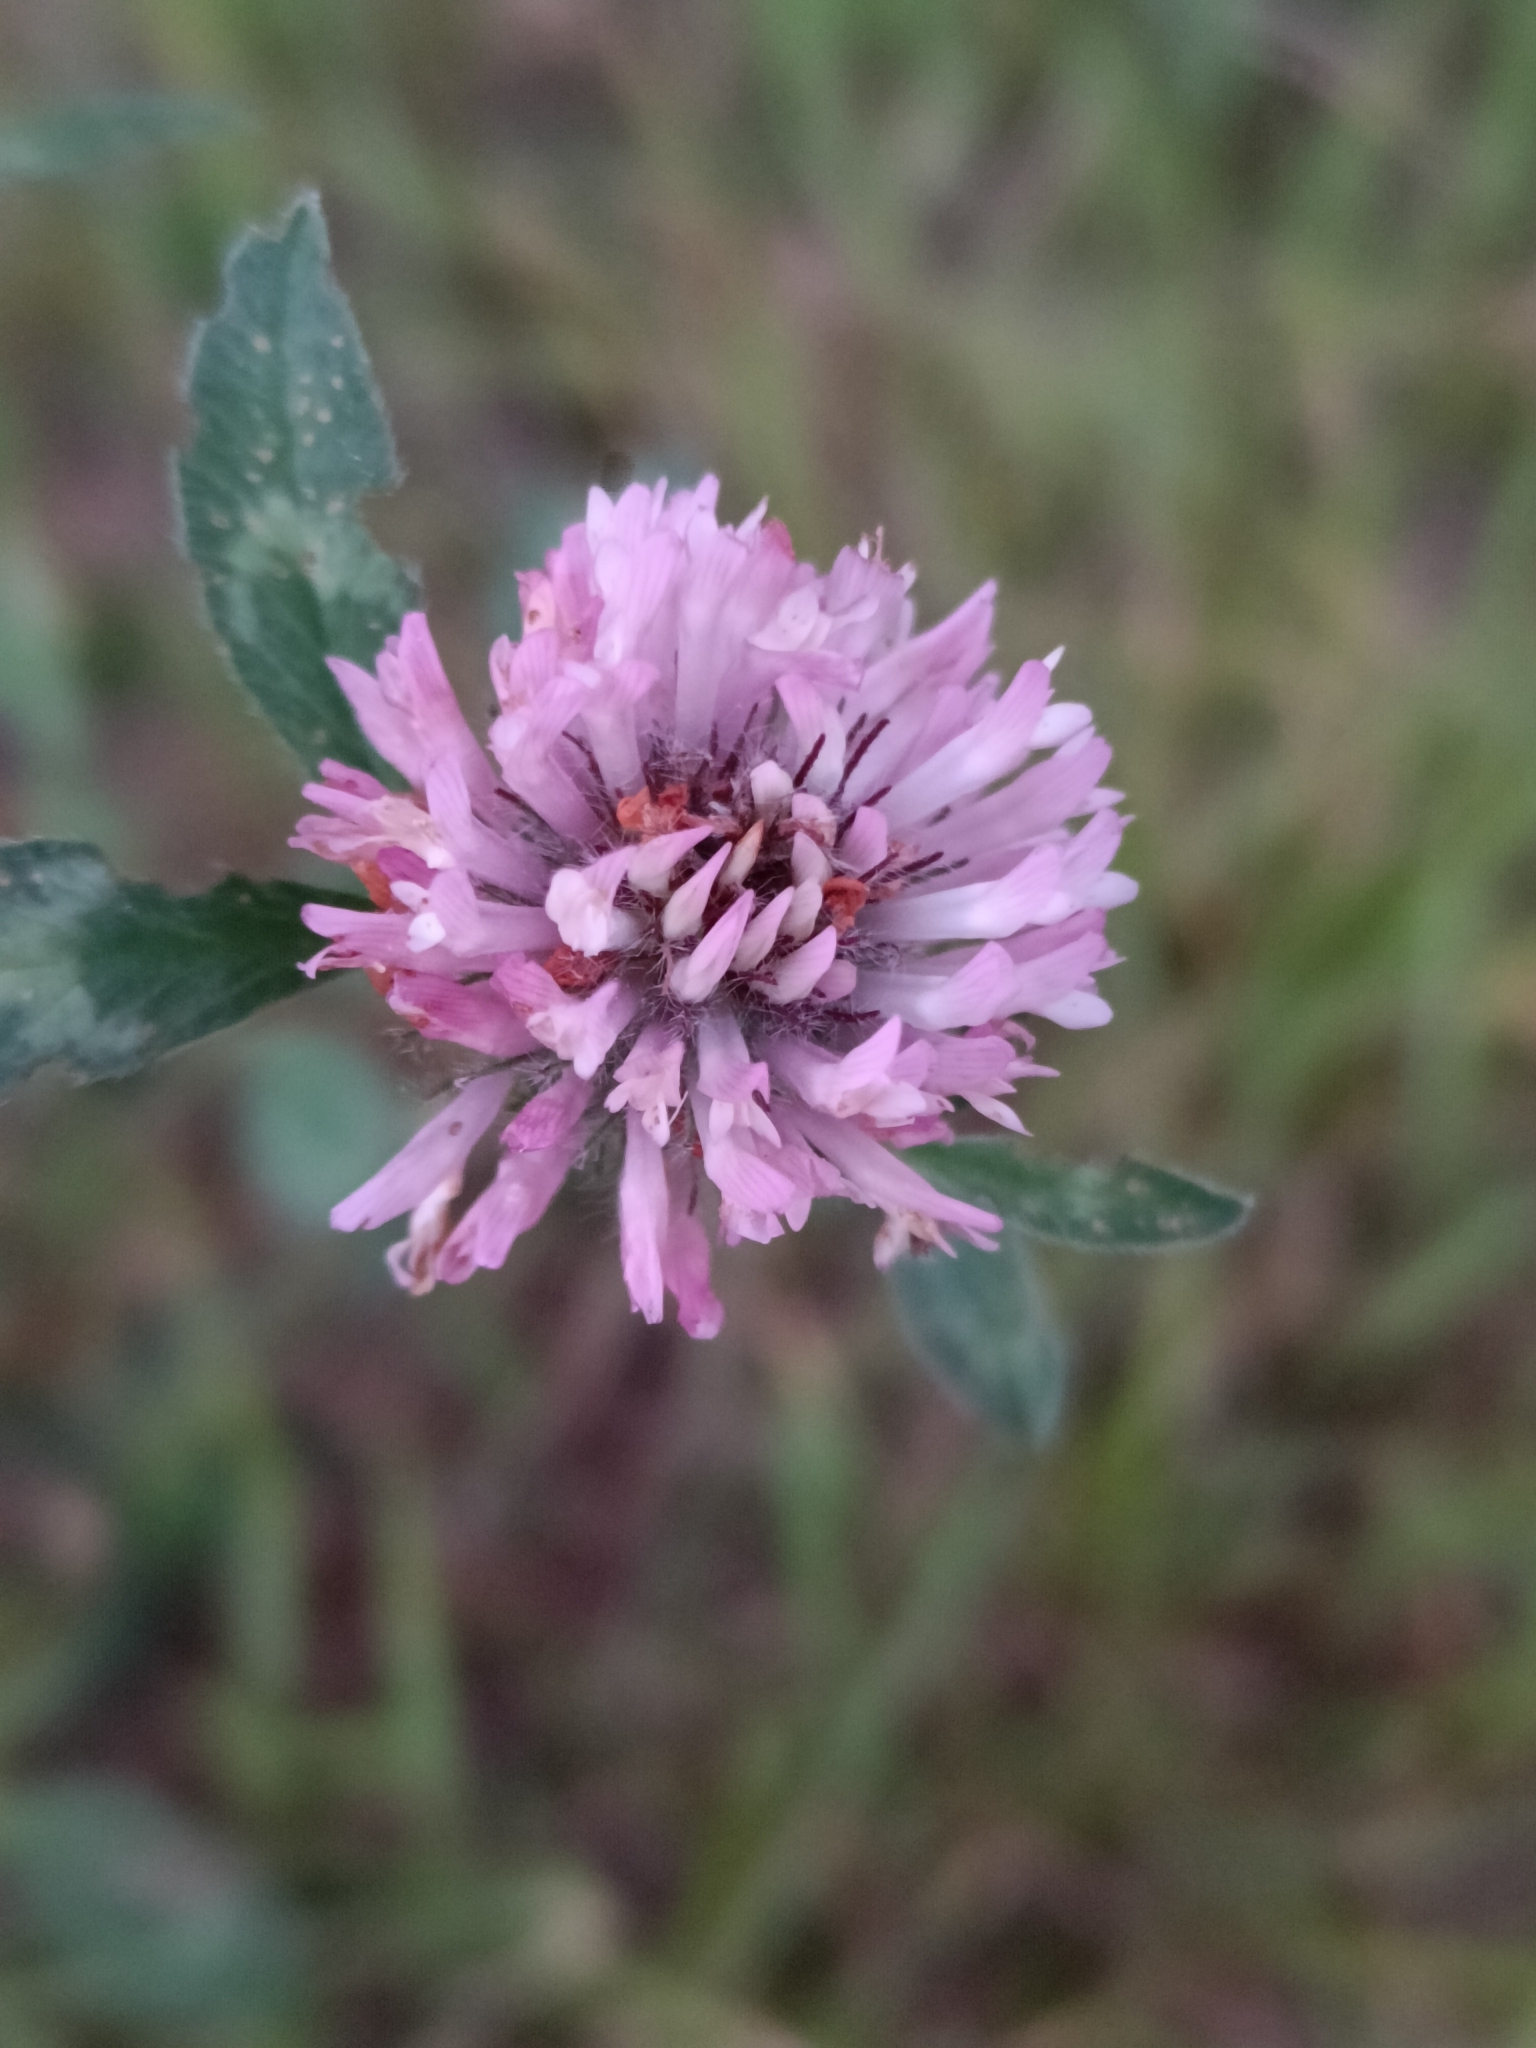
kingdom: Plantae
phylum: Tracheophyta
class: Magnoliopsida
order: Fabales
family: Fabaceae
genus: Trifolium
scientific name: Trifolium pratense
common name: Red clover
